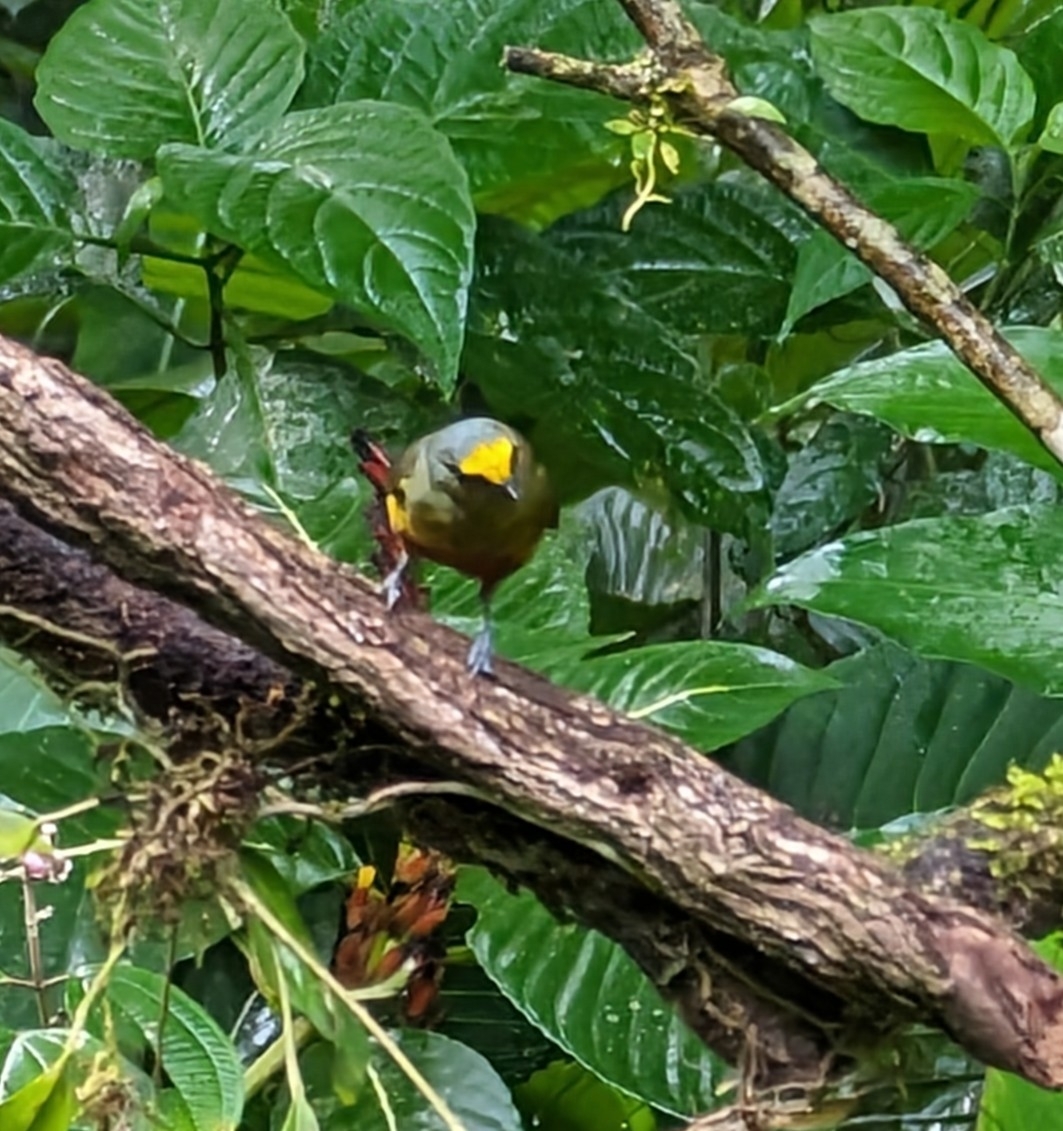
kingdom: Animalia
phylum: Chordata
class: Aves
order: Passeriformes
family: Fringillidae
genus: Euphonia
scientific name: Euphonia gouldi
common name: Olive-backed euphonia
